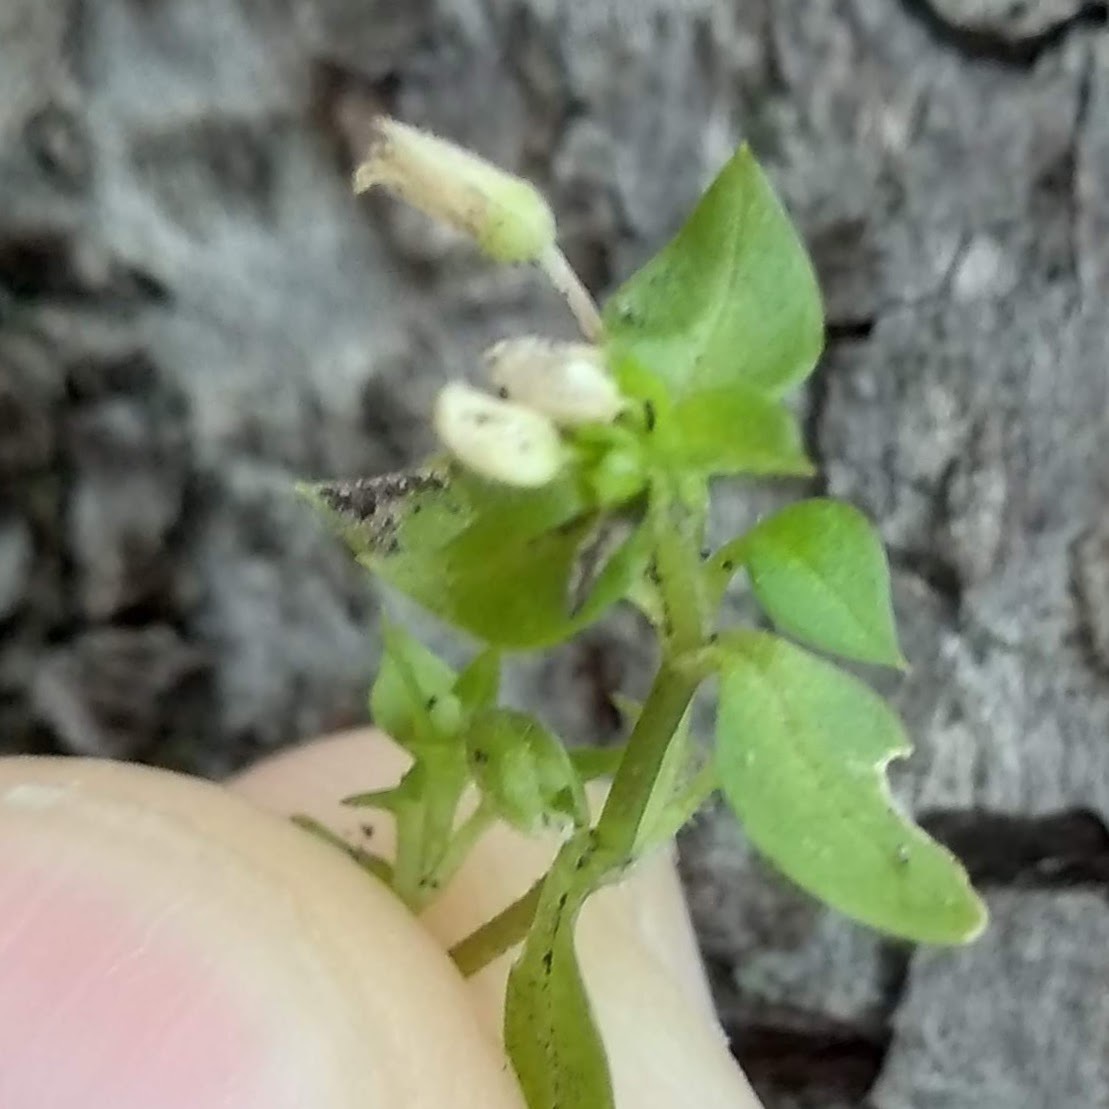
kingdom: Plantae
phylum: Tracheophyta
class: Magnoliopsida
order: Caryophyllales
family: Caryophyllaceae
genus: Stellaria
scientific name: Stellaria media
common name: Common chickweed
